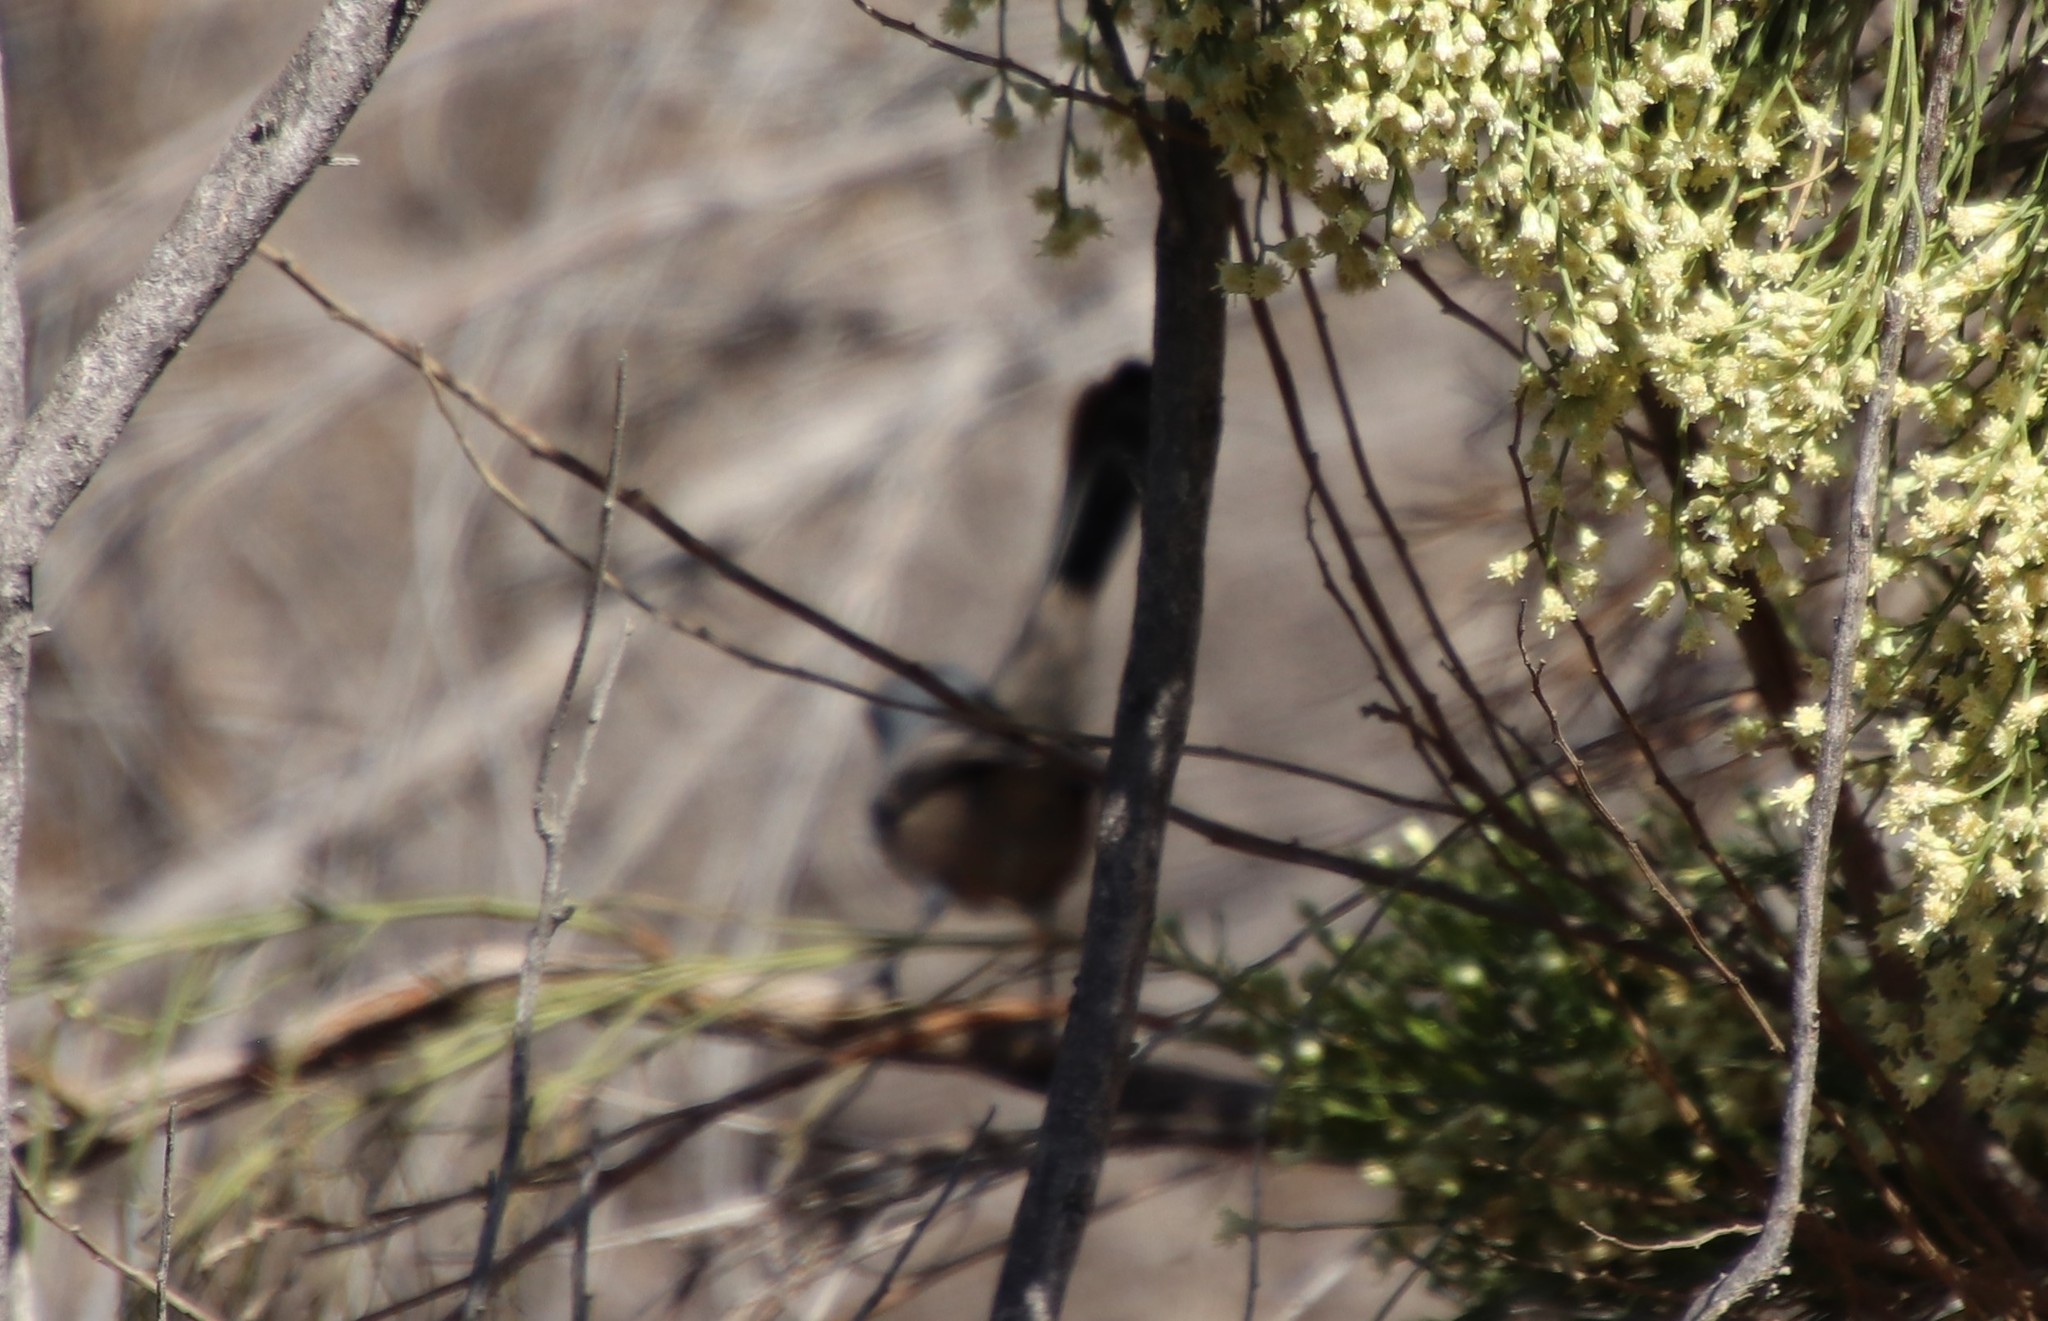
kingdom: Animalia
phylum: Chordata
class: Aves
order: Passeriformes
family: Polioptilidae
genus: Polioptila
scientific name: Polioptila californica
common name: California gnatcatcher
